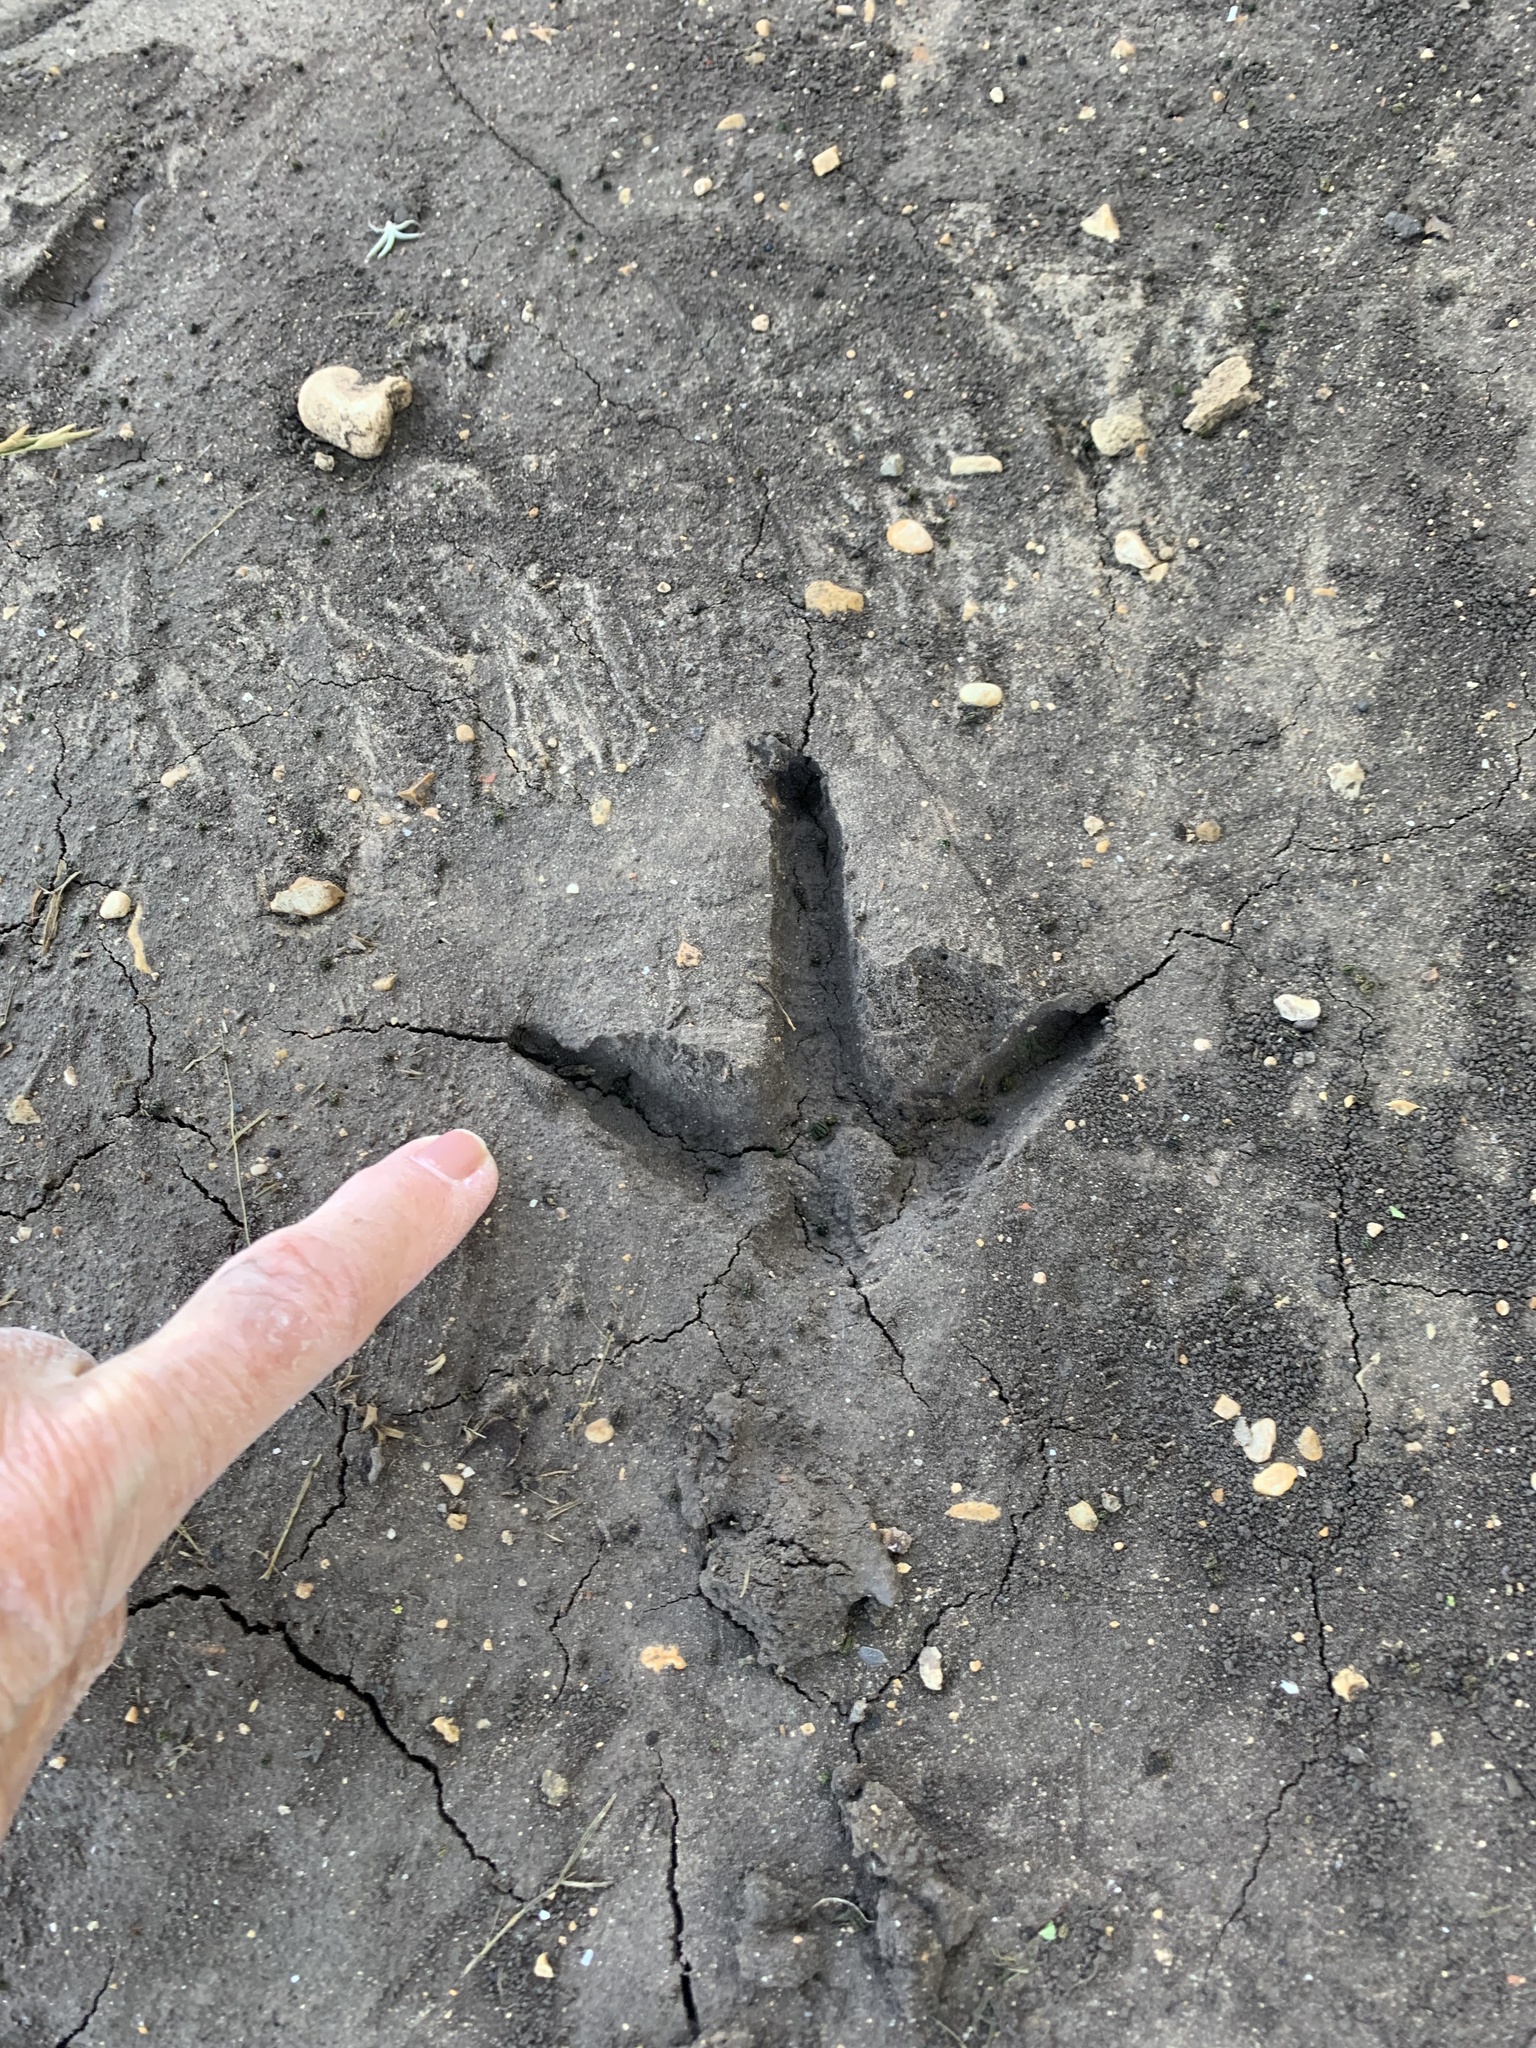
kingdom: Animalia
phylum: Chordata
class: Aves
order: Galliformes
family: Phasianidae
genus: Meleagris
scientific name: Meleagris gallopavo
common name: Wild turkey
